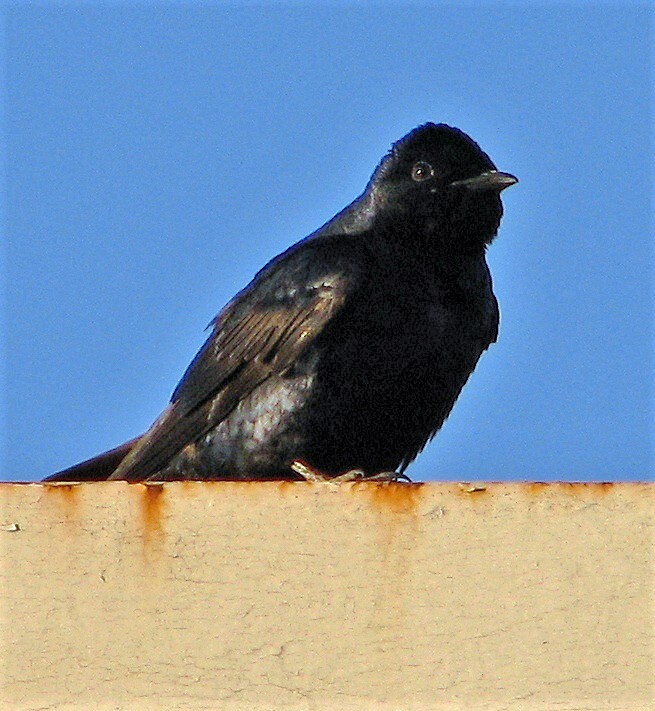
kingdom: Animalia
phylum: Chordata
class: Aves
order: Passeriformes
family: Hirundinidae
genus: Progne
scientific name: Progne elegans
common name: Southern martin
